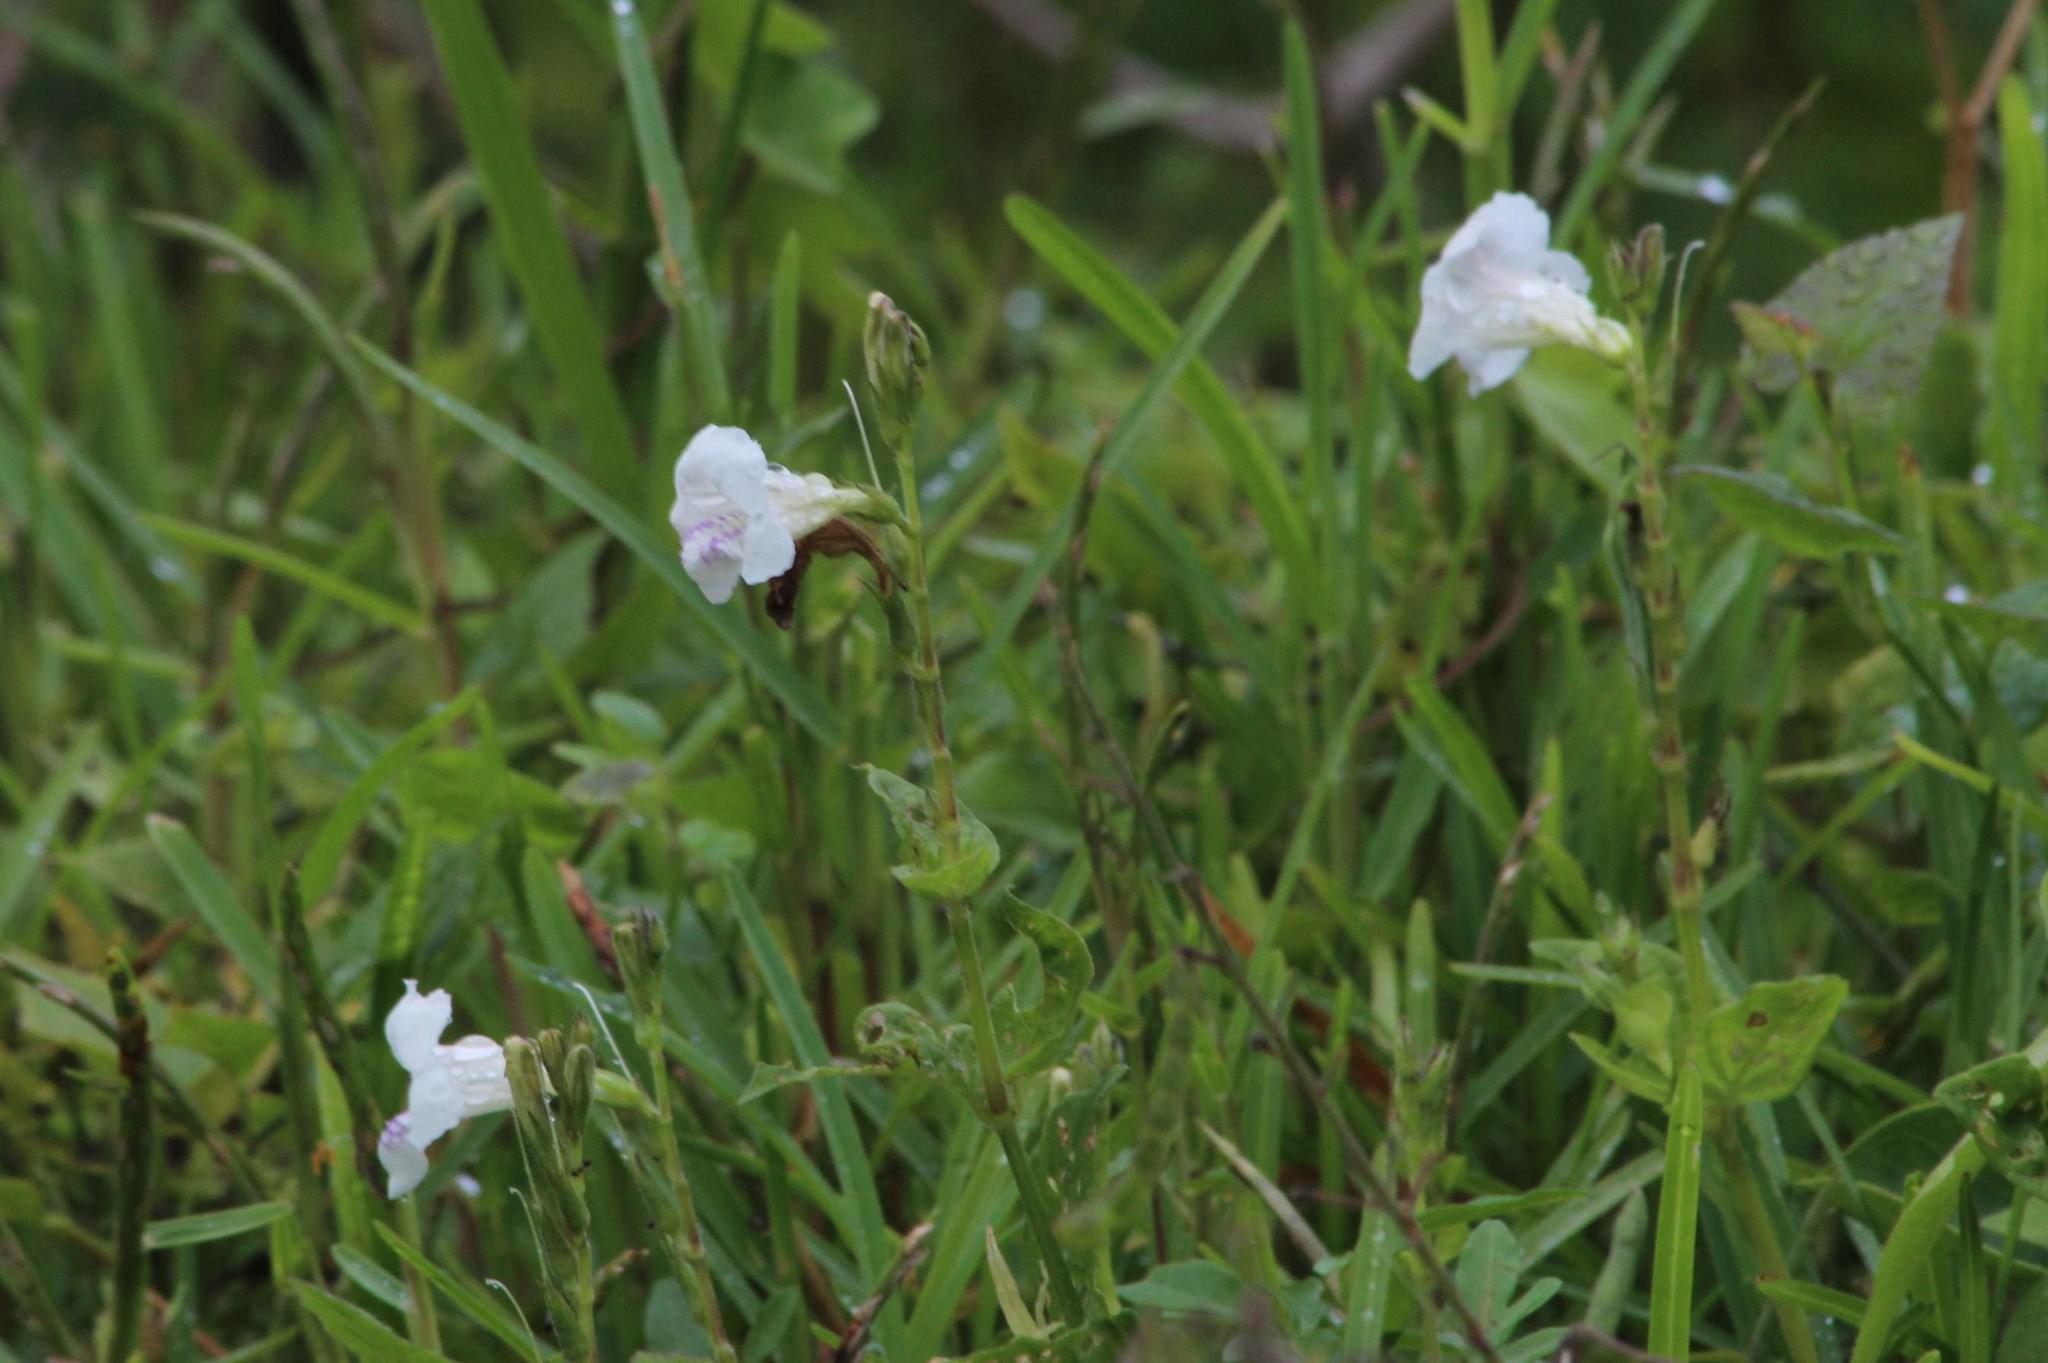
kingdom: Plantae
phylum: Tracheophyta
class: Magnoliopsida
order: Lamiales
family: Acanthaceae
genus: Asystasia
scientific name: Asystasia intrusa
